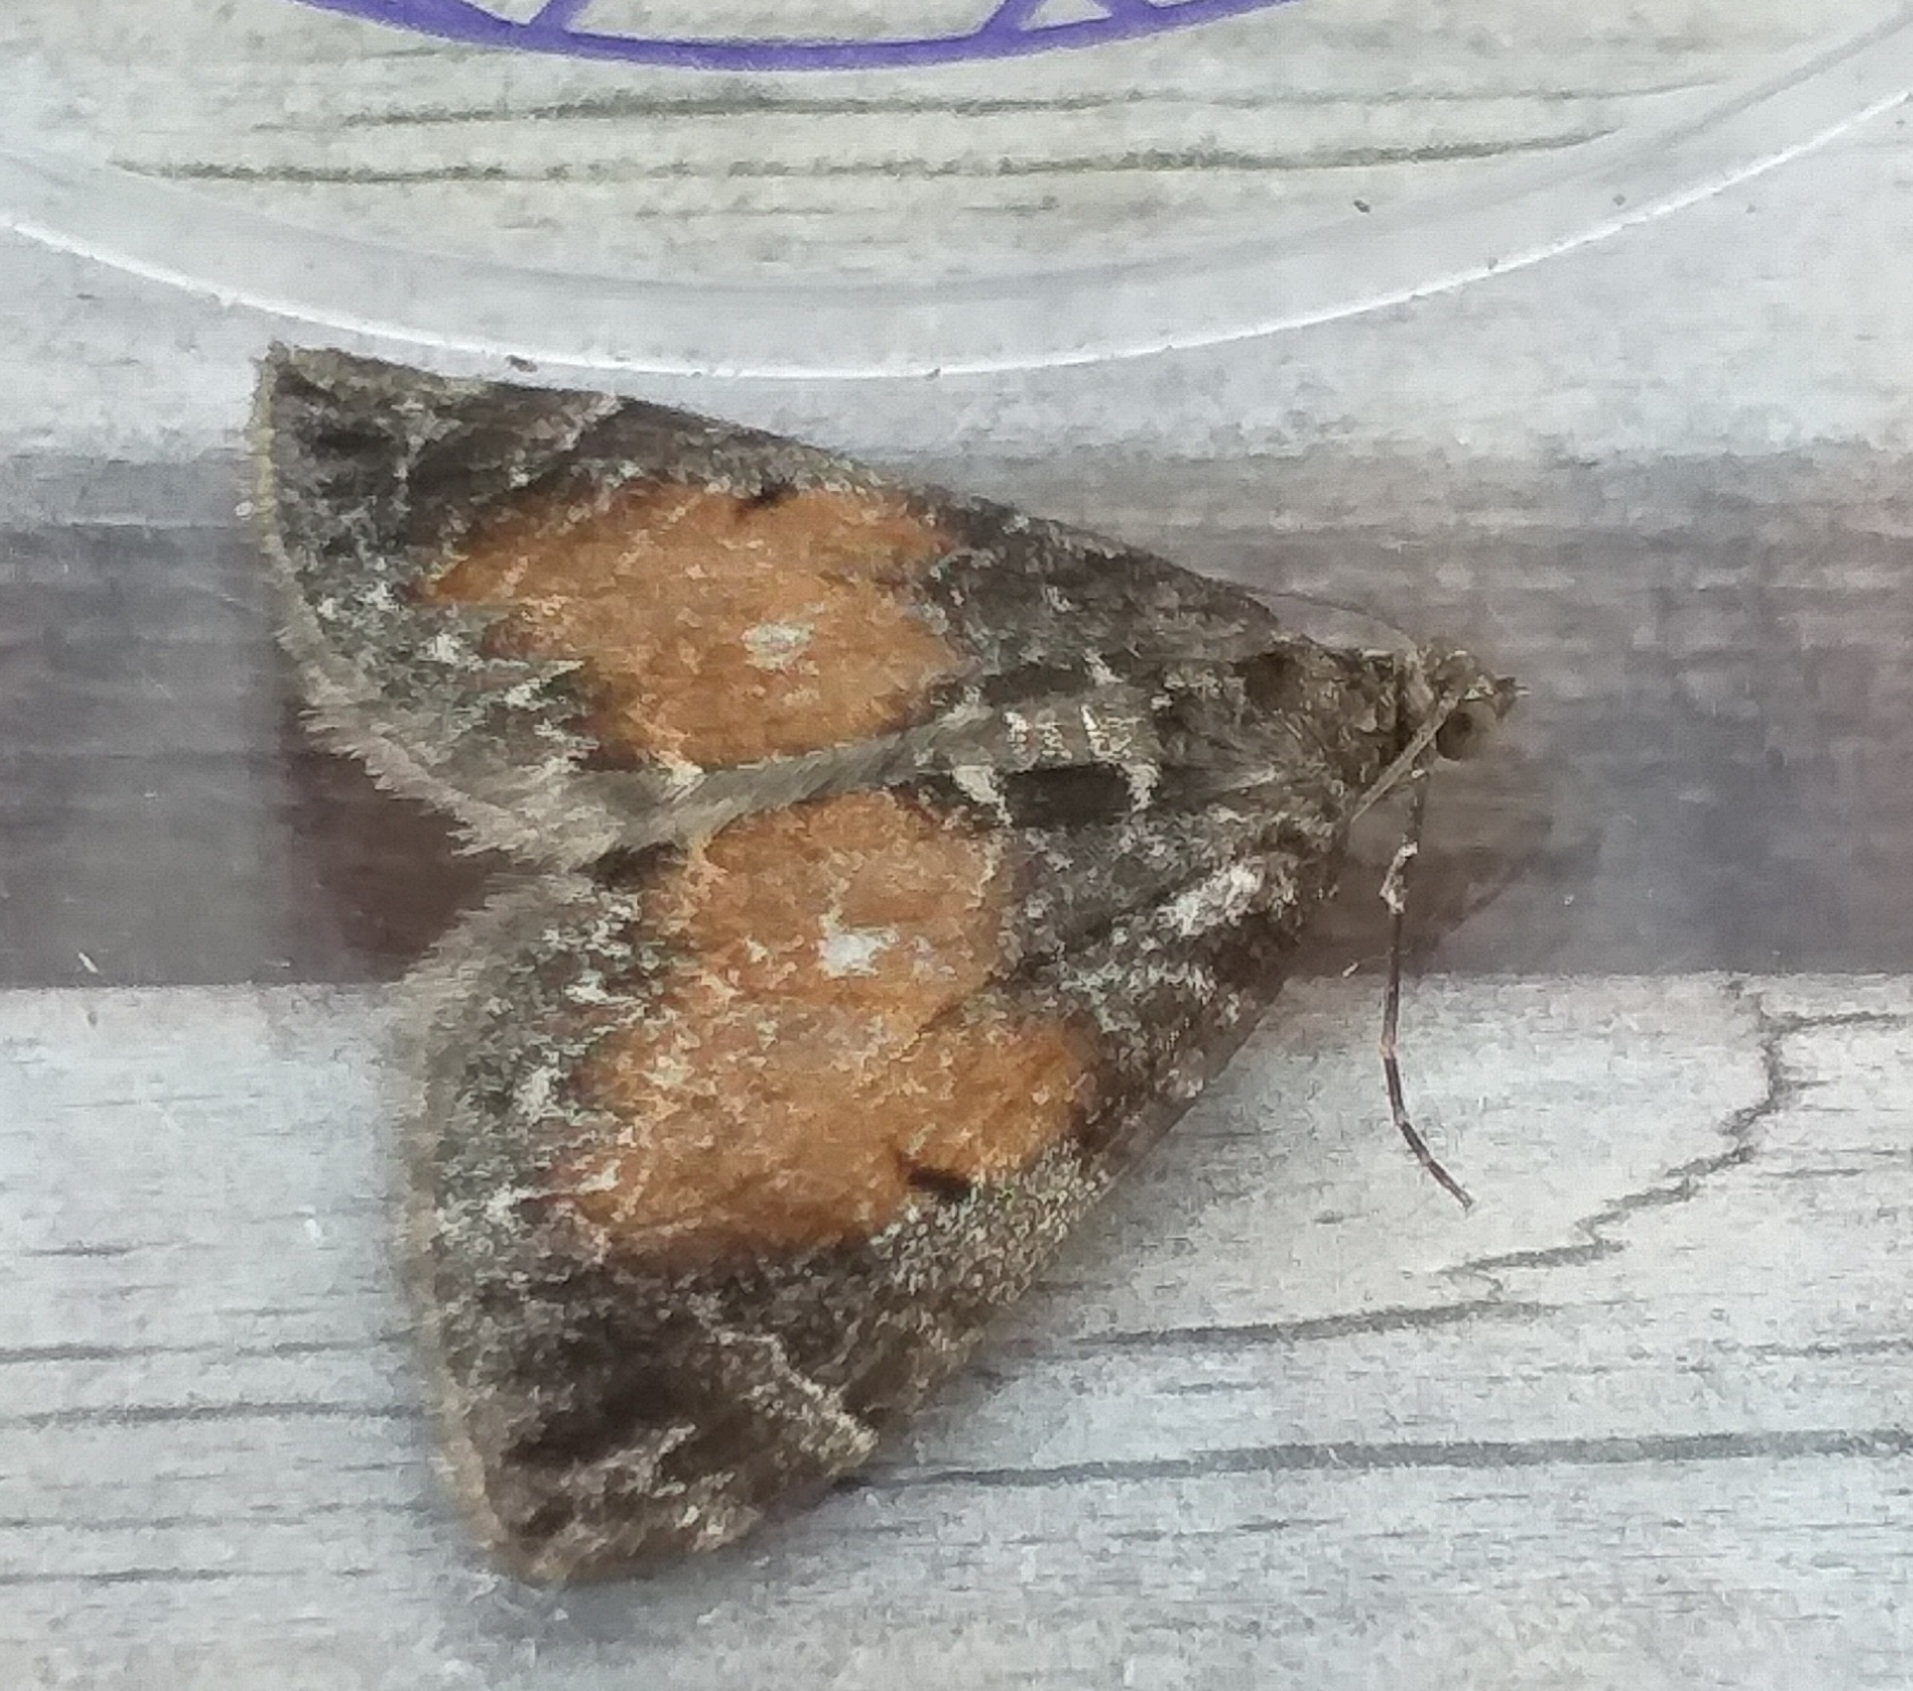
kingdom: Animalia
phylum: Arthropoda
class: Insecta
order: Lepidoptera
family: Geometridae
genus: Dysstroma
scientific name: Dysstroma truncata
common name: Common marbled carpet
